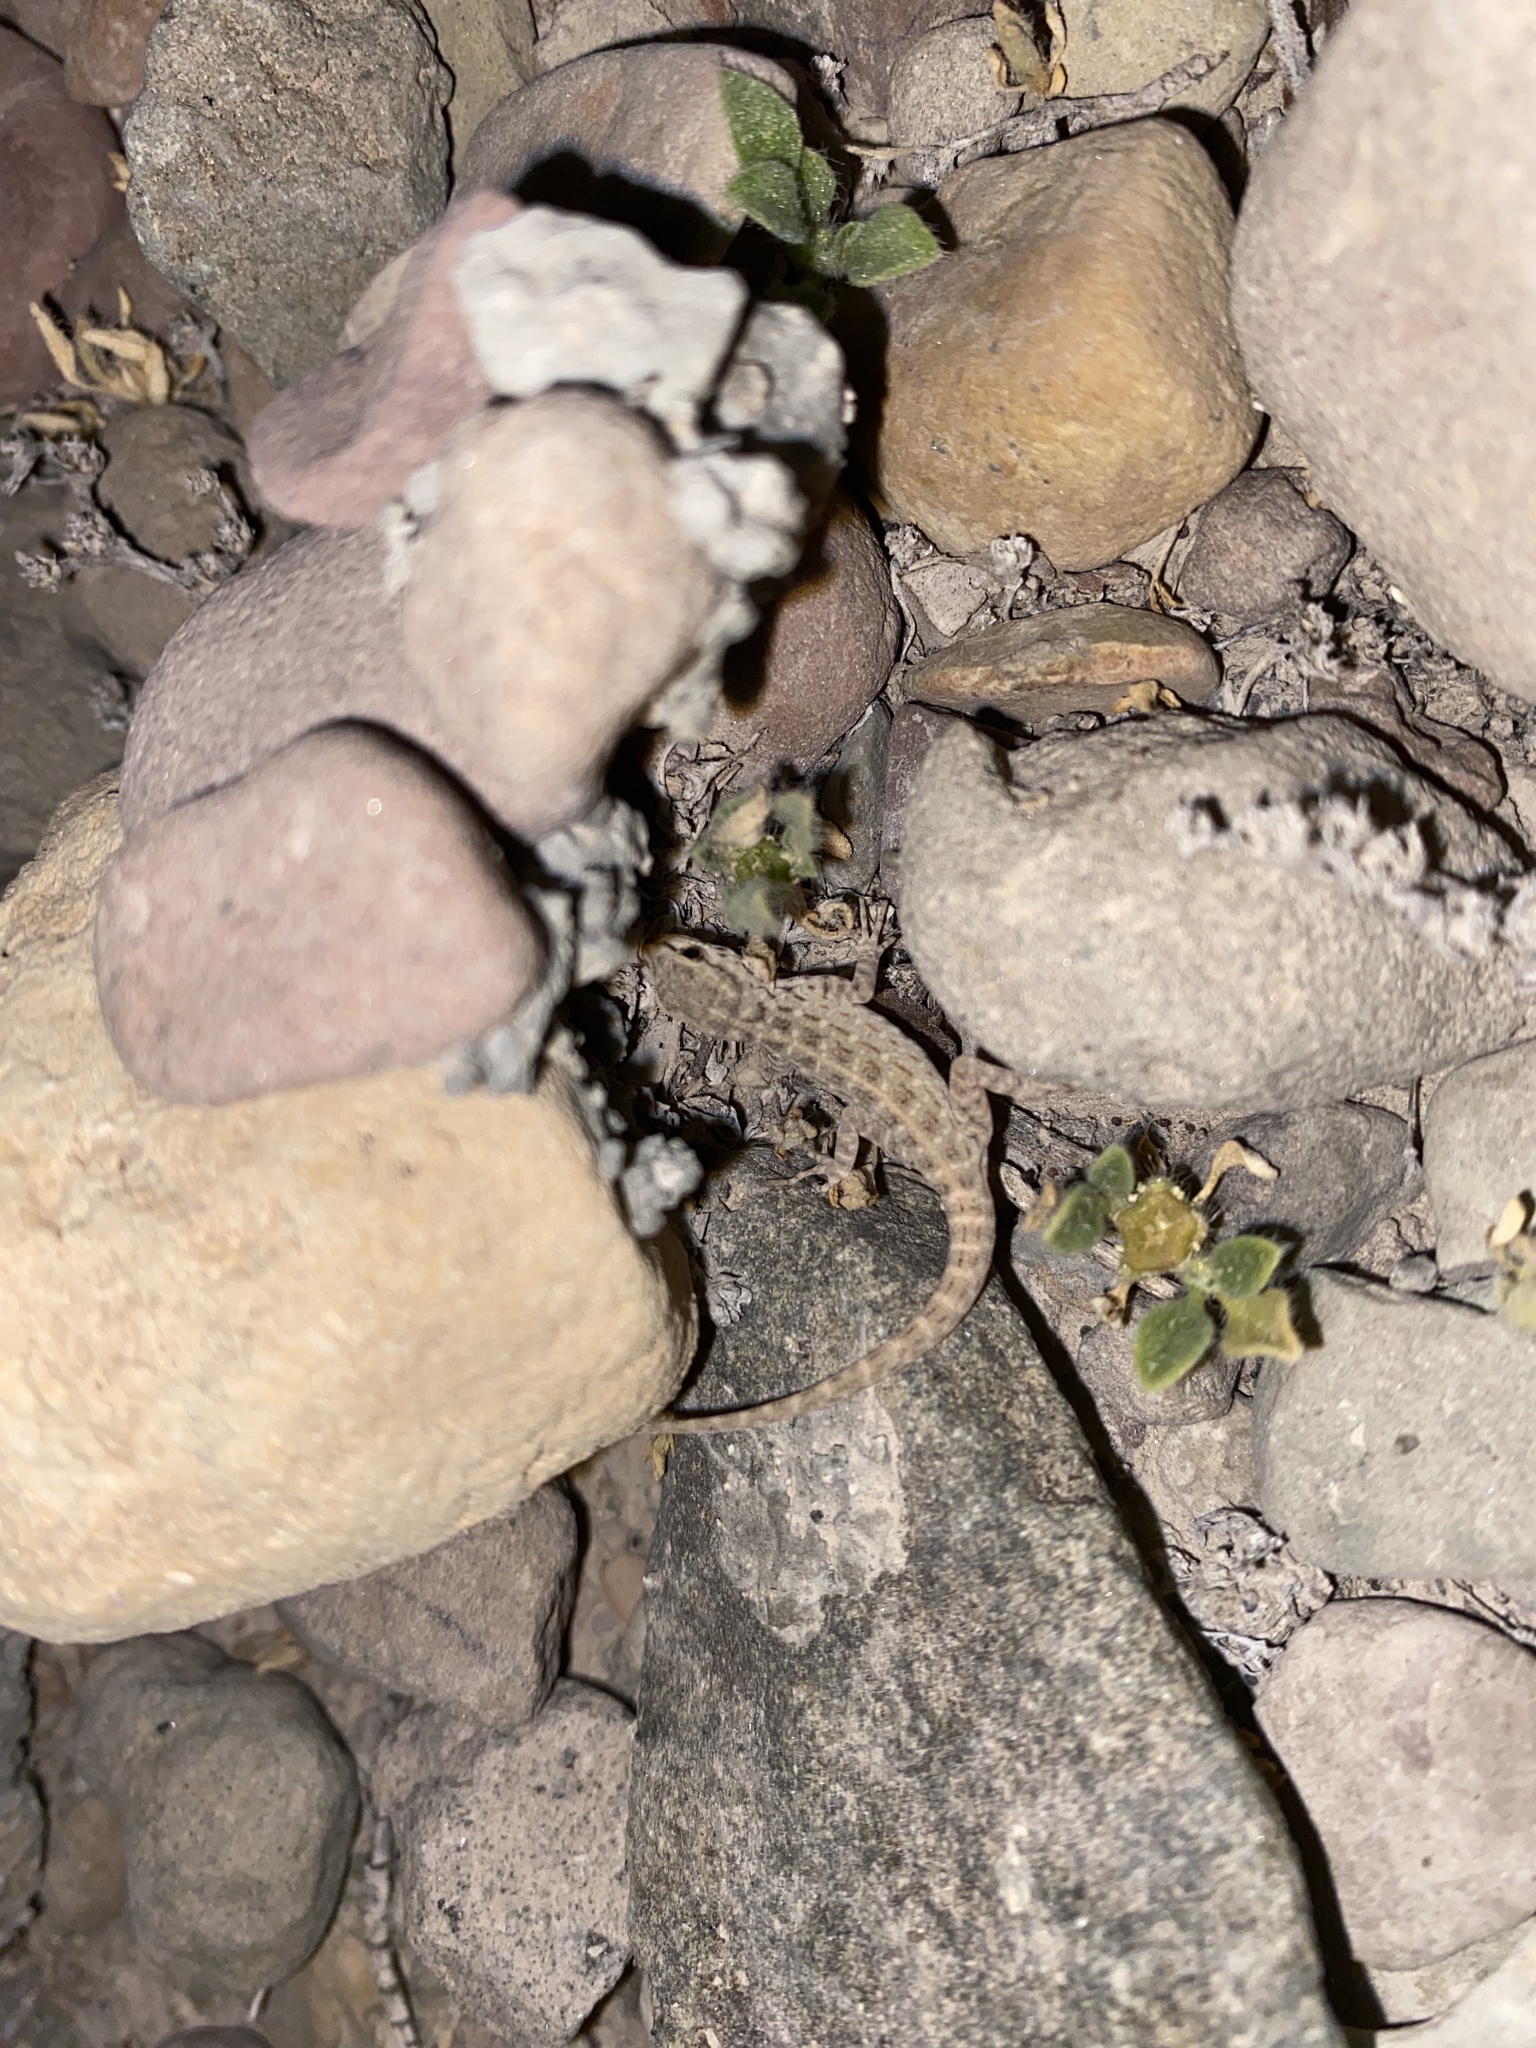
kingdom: Animalia
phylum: Chordata
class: Squamata
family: Sphaerodactylidae
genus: Pristurus
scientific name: Pristurus rupestris
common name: Blanford’s semaphore gecko
